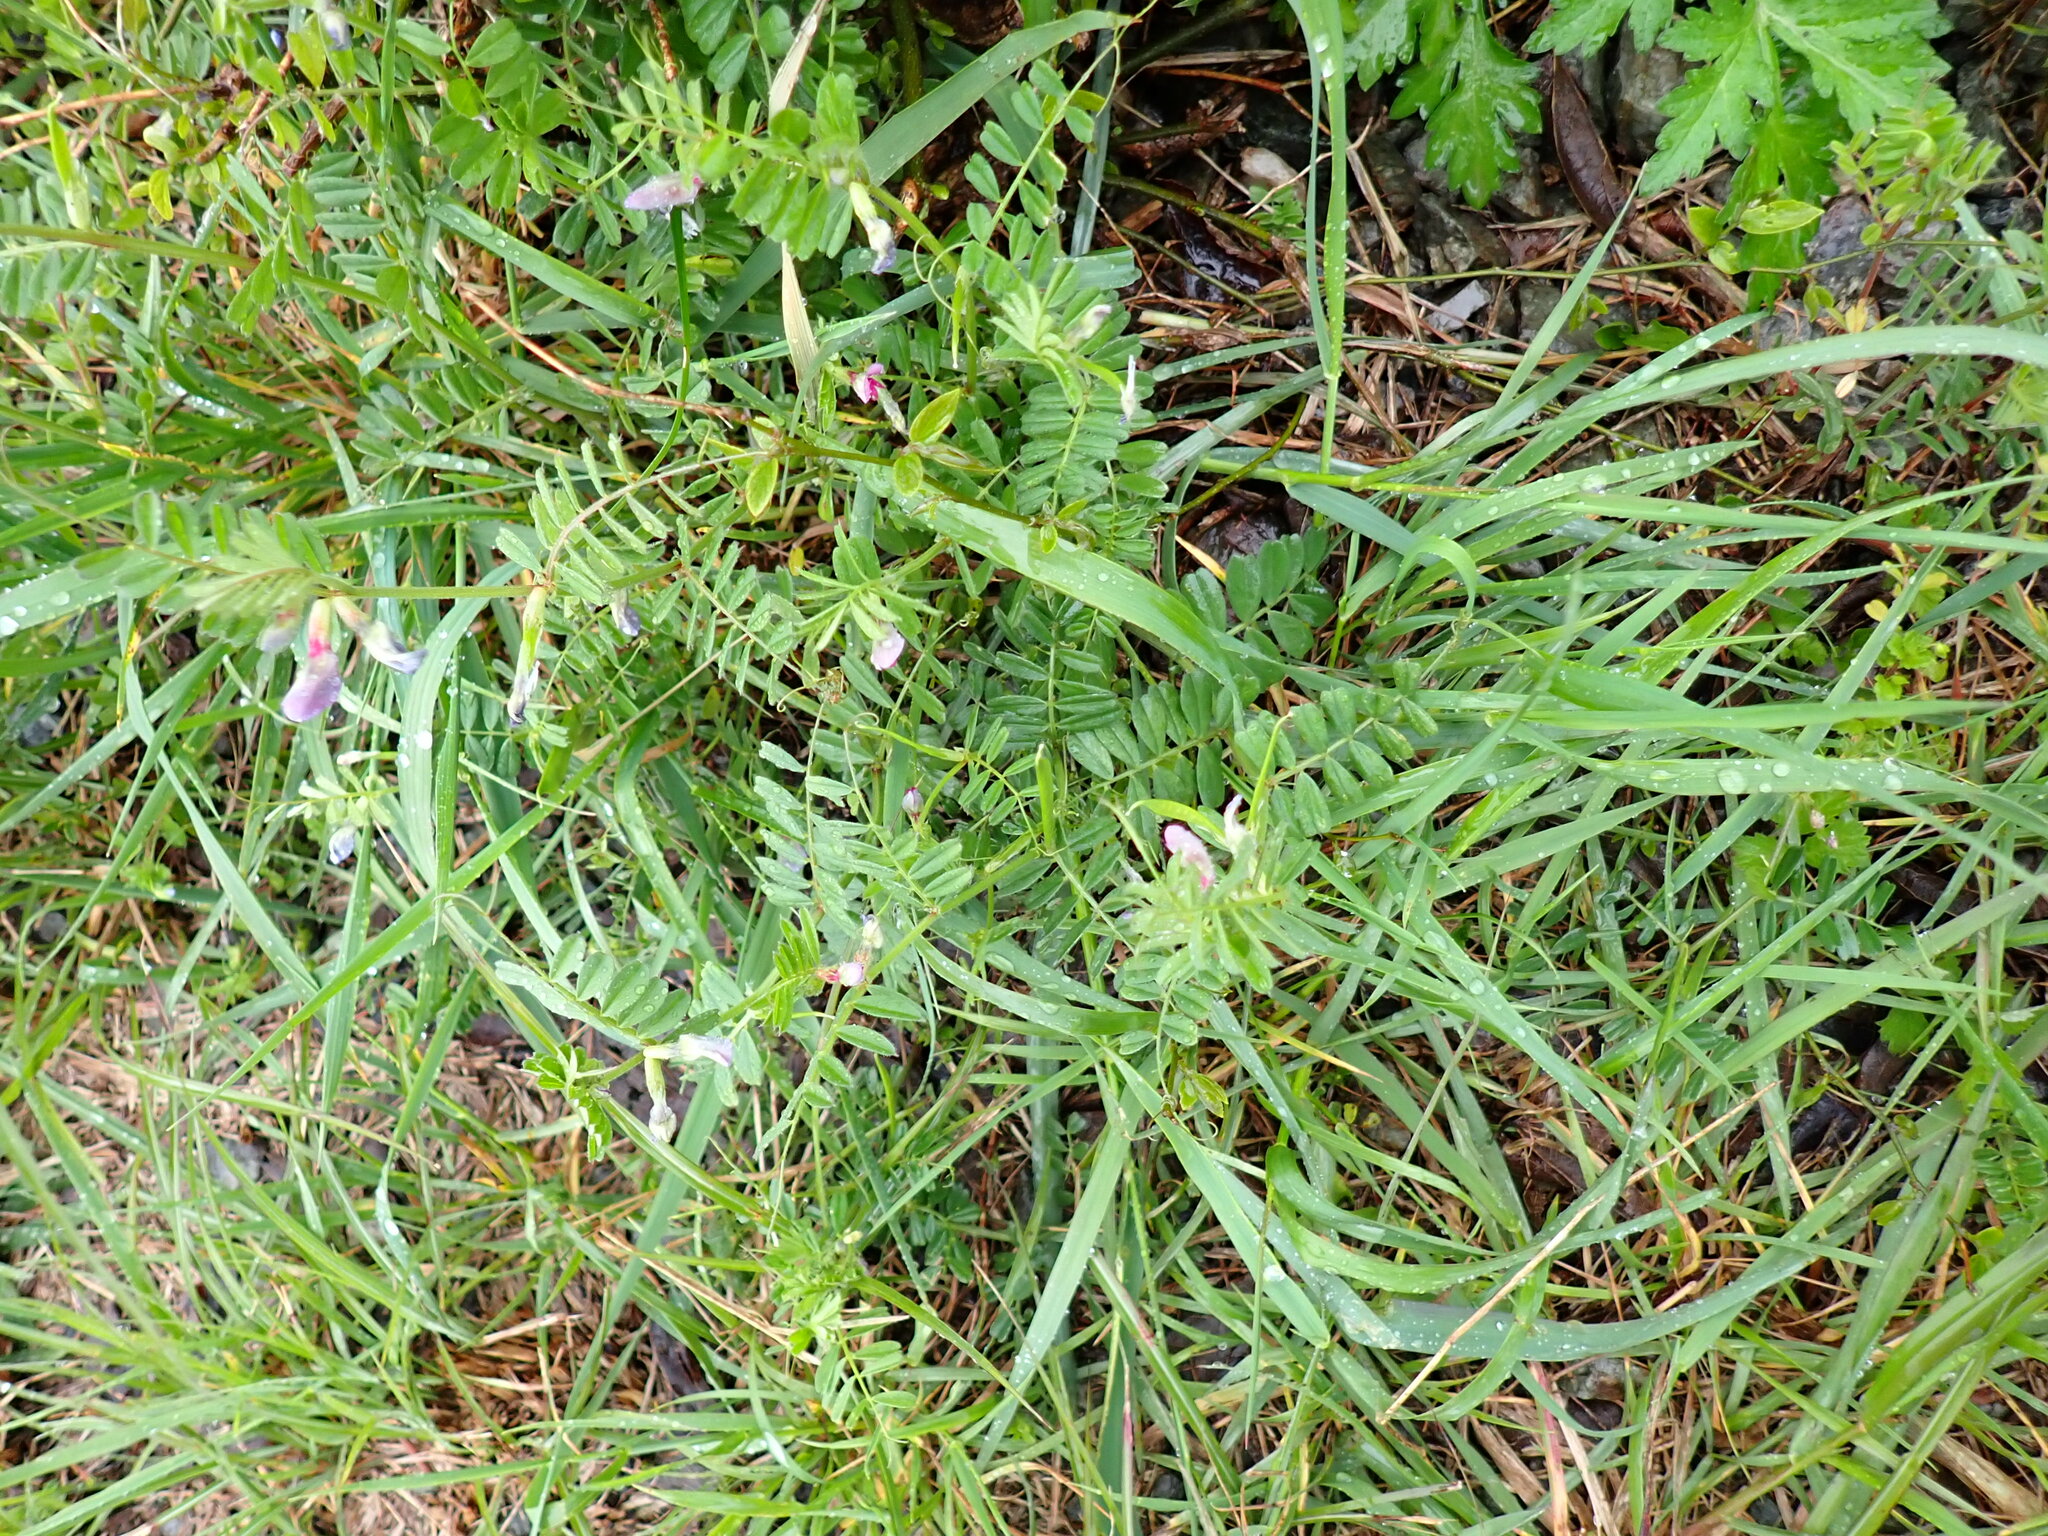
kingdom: Plantae
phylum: Tracheophyta
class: Magnoliopsida
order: Fabales
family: Fabaceae
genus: Vicia
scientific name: Vicia sativa
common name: Garden vetch
